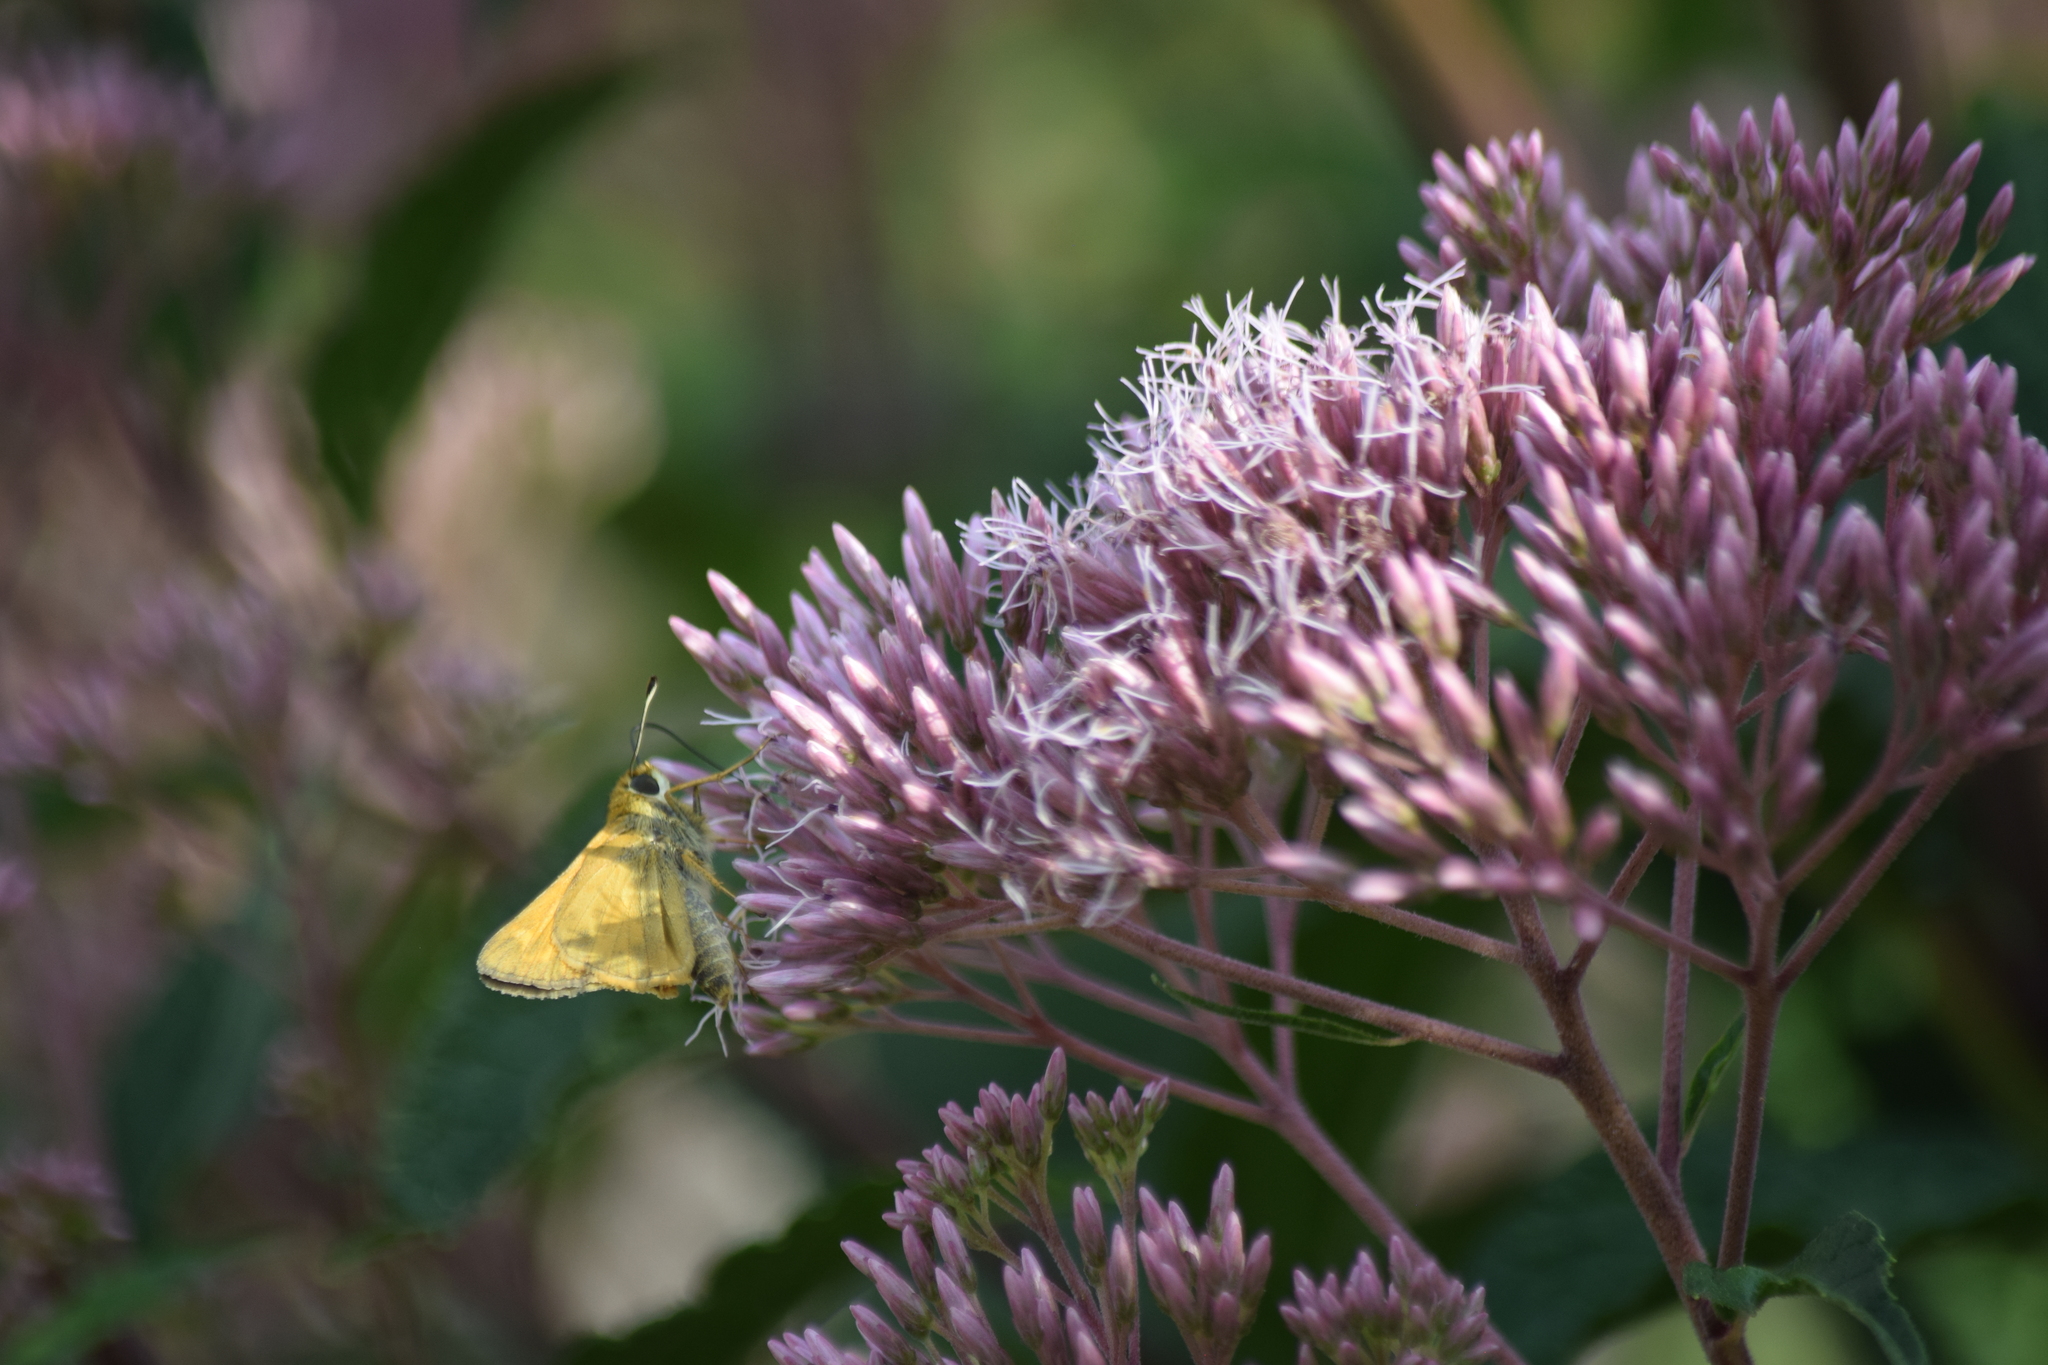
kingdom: Animalia
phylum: Arthropoda
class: Insecta
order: Lepidoptera
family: Hesperiidae
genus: Atalopedes
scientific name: Atalopedes
